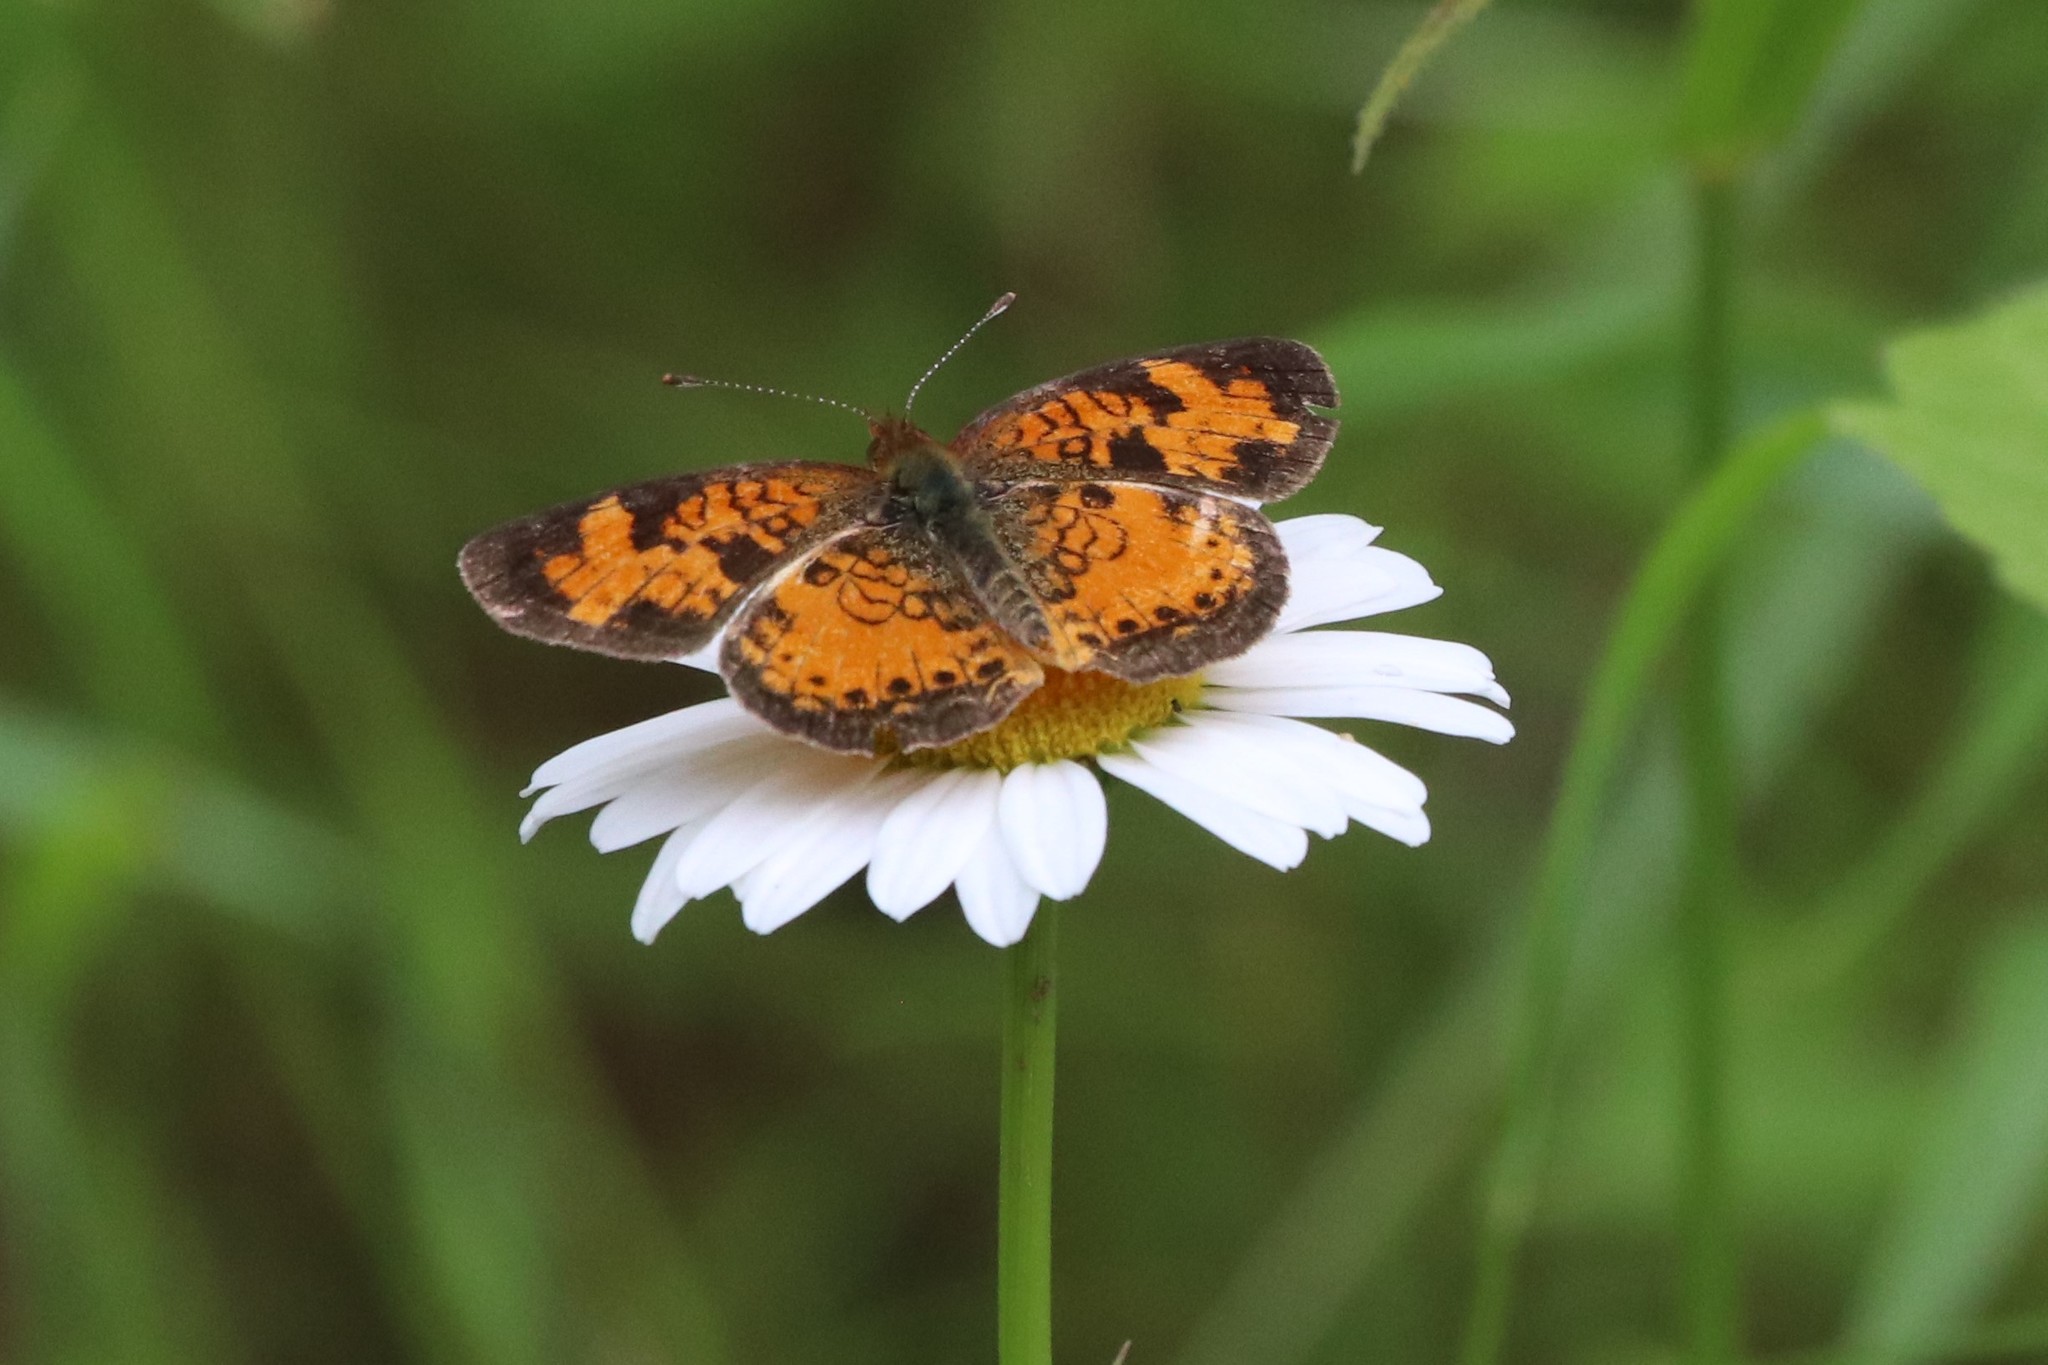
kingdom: Animalia
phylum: Arthropoda
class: Insecta
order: Lepidoptera
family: Nymphalidae
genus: Phyciodes
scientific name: Phyciodes tharos
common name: Pearl crescent
